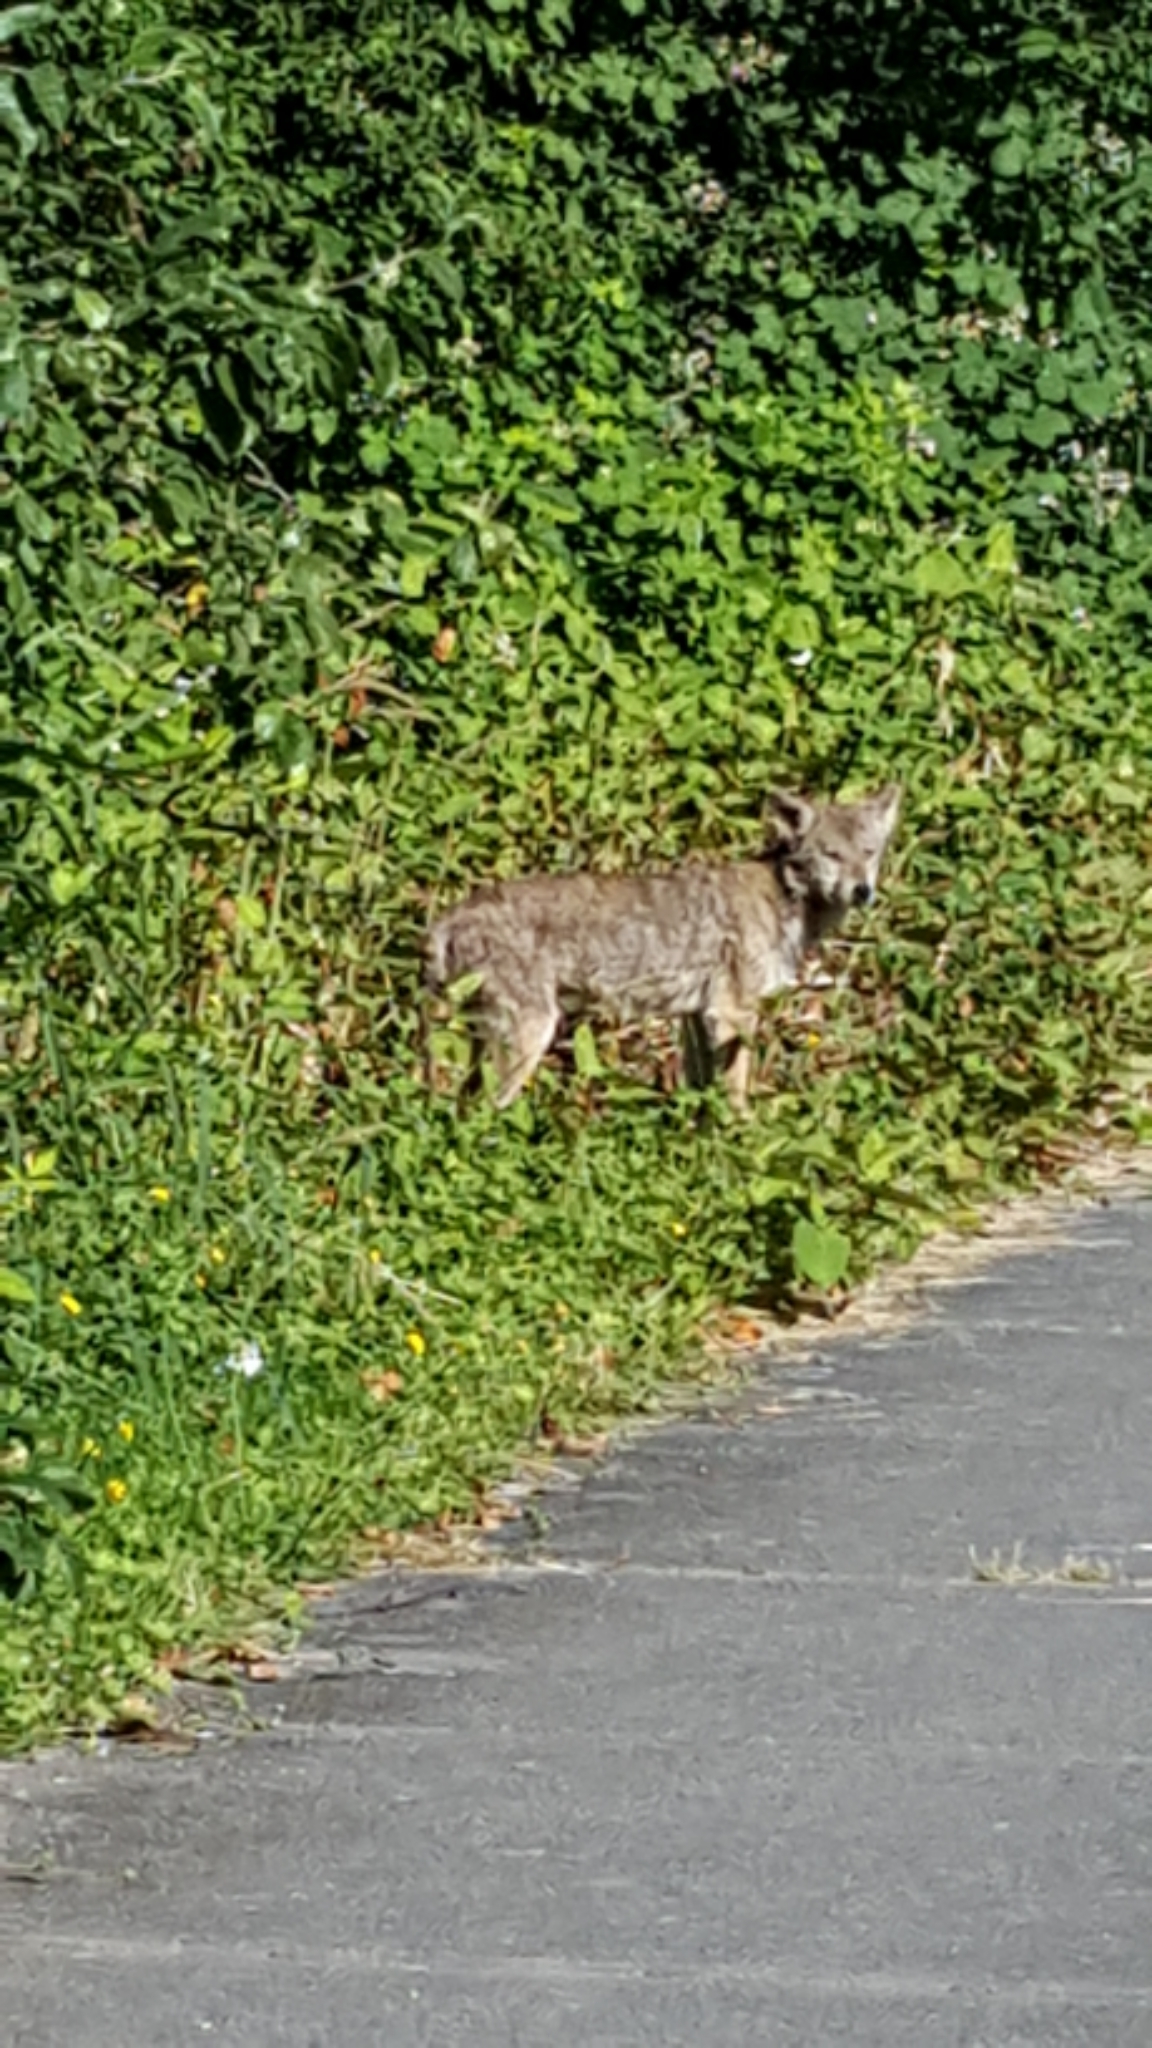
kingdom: Animalia
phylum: Chordata
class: Mammalia
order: Carnivora
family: Canidae
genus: Canis
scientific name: Canis latrans
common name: Coyote
